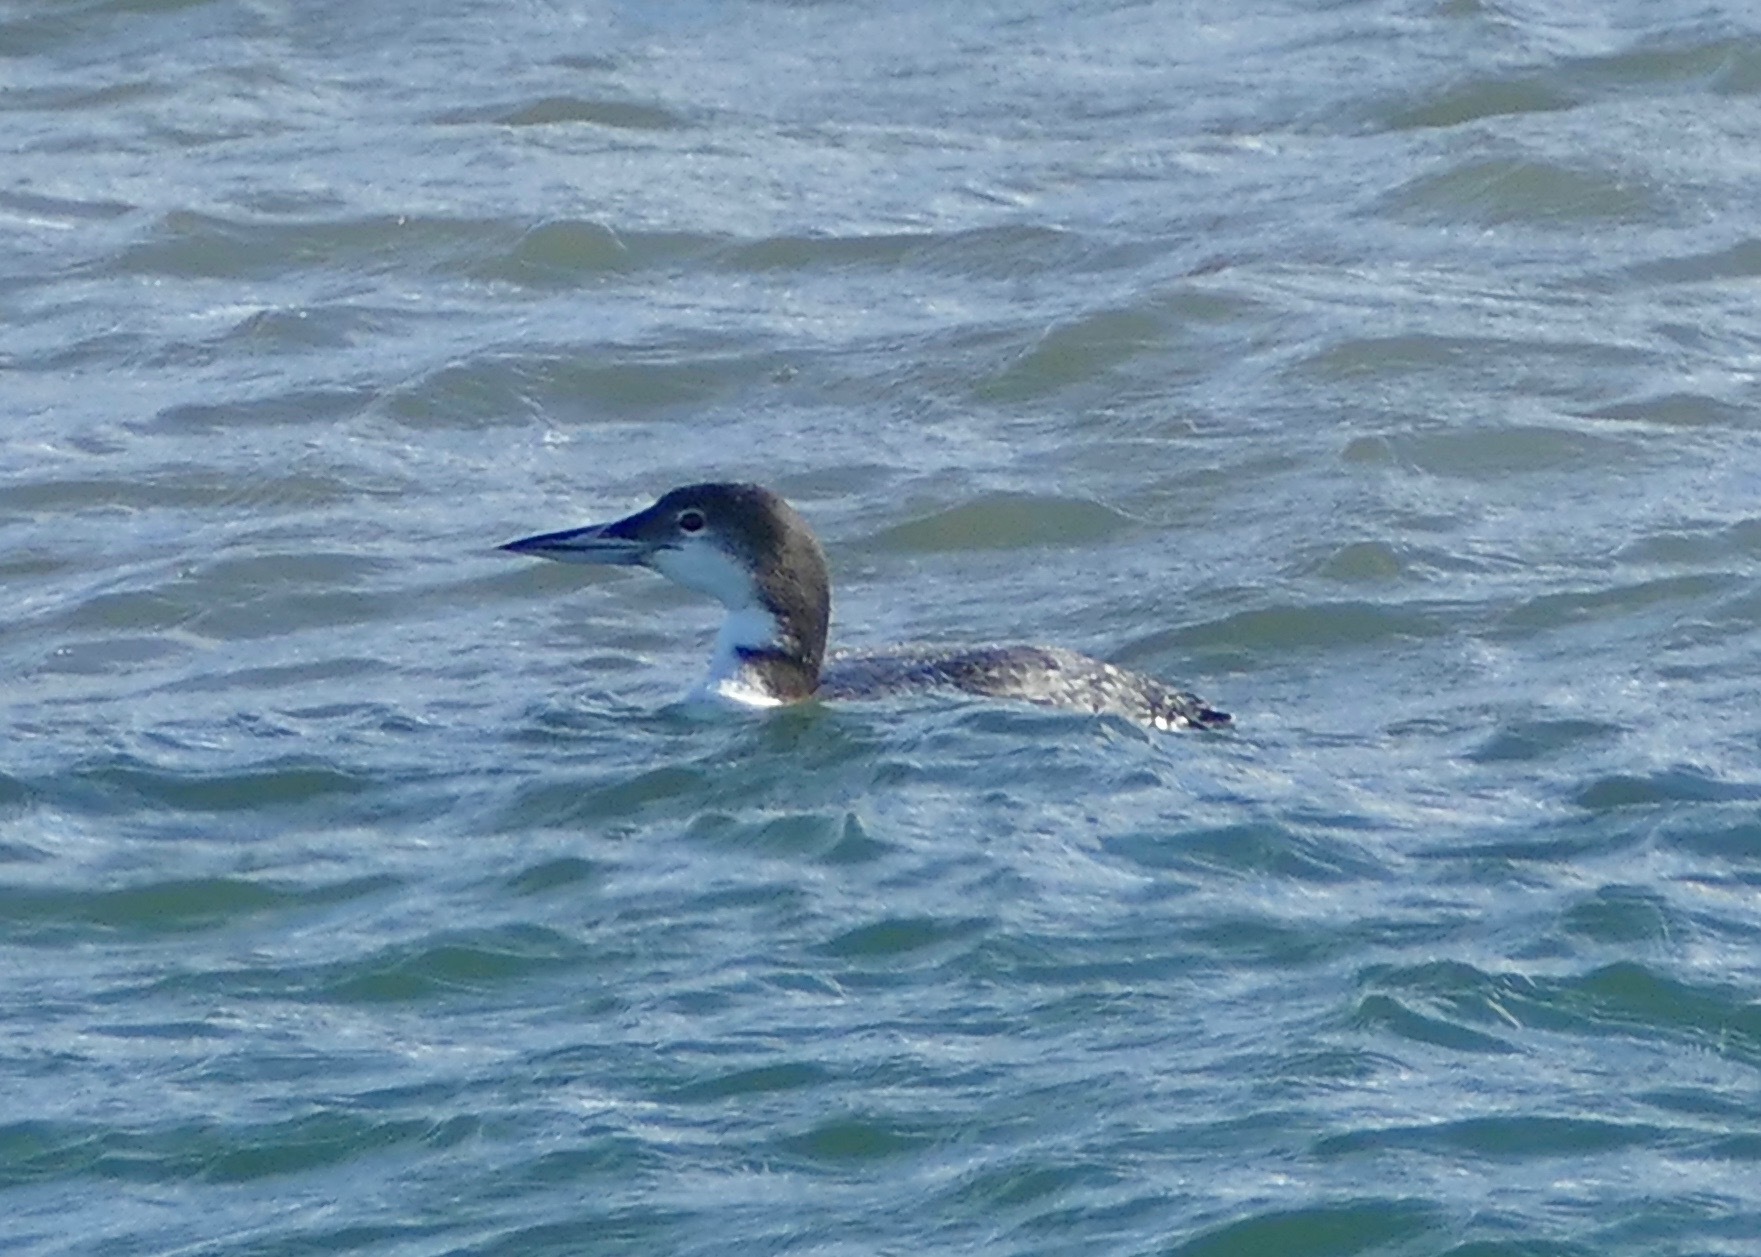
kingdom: Animalia
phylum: Chordata
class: Aves
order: Gaviiformes
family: Gaviidae
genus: Gavia
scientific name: Gavia immer
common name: Common loon
